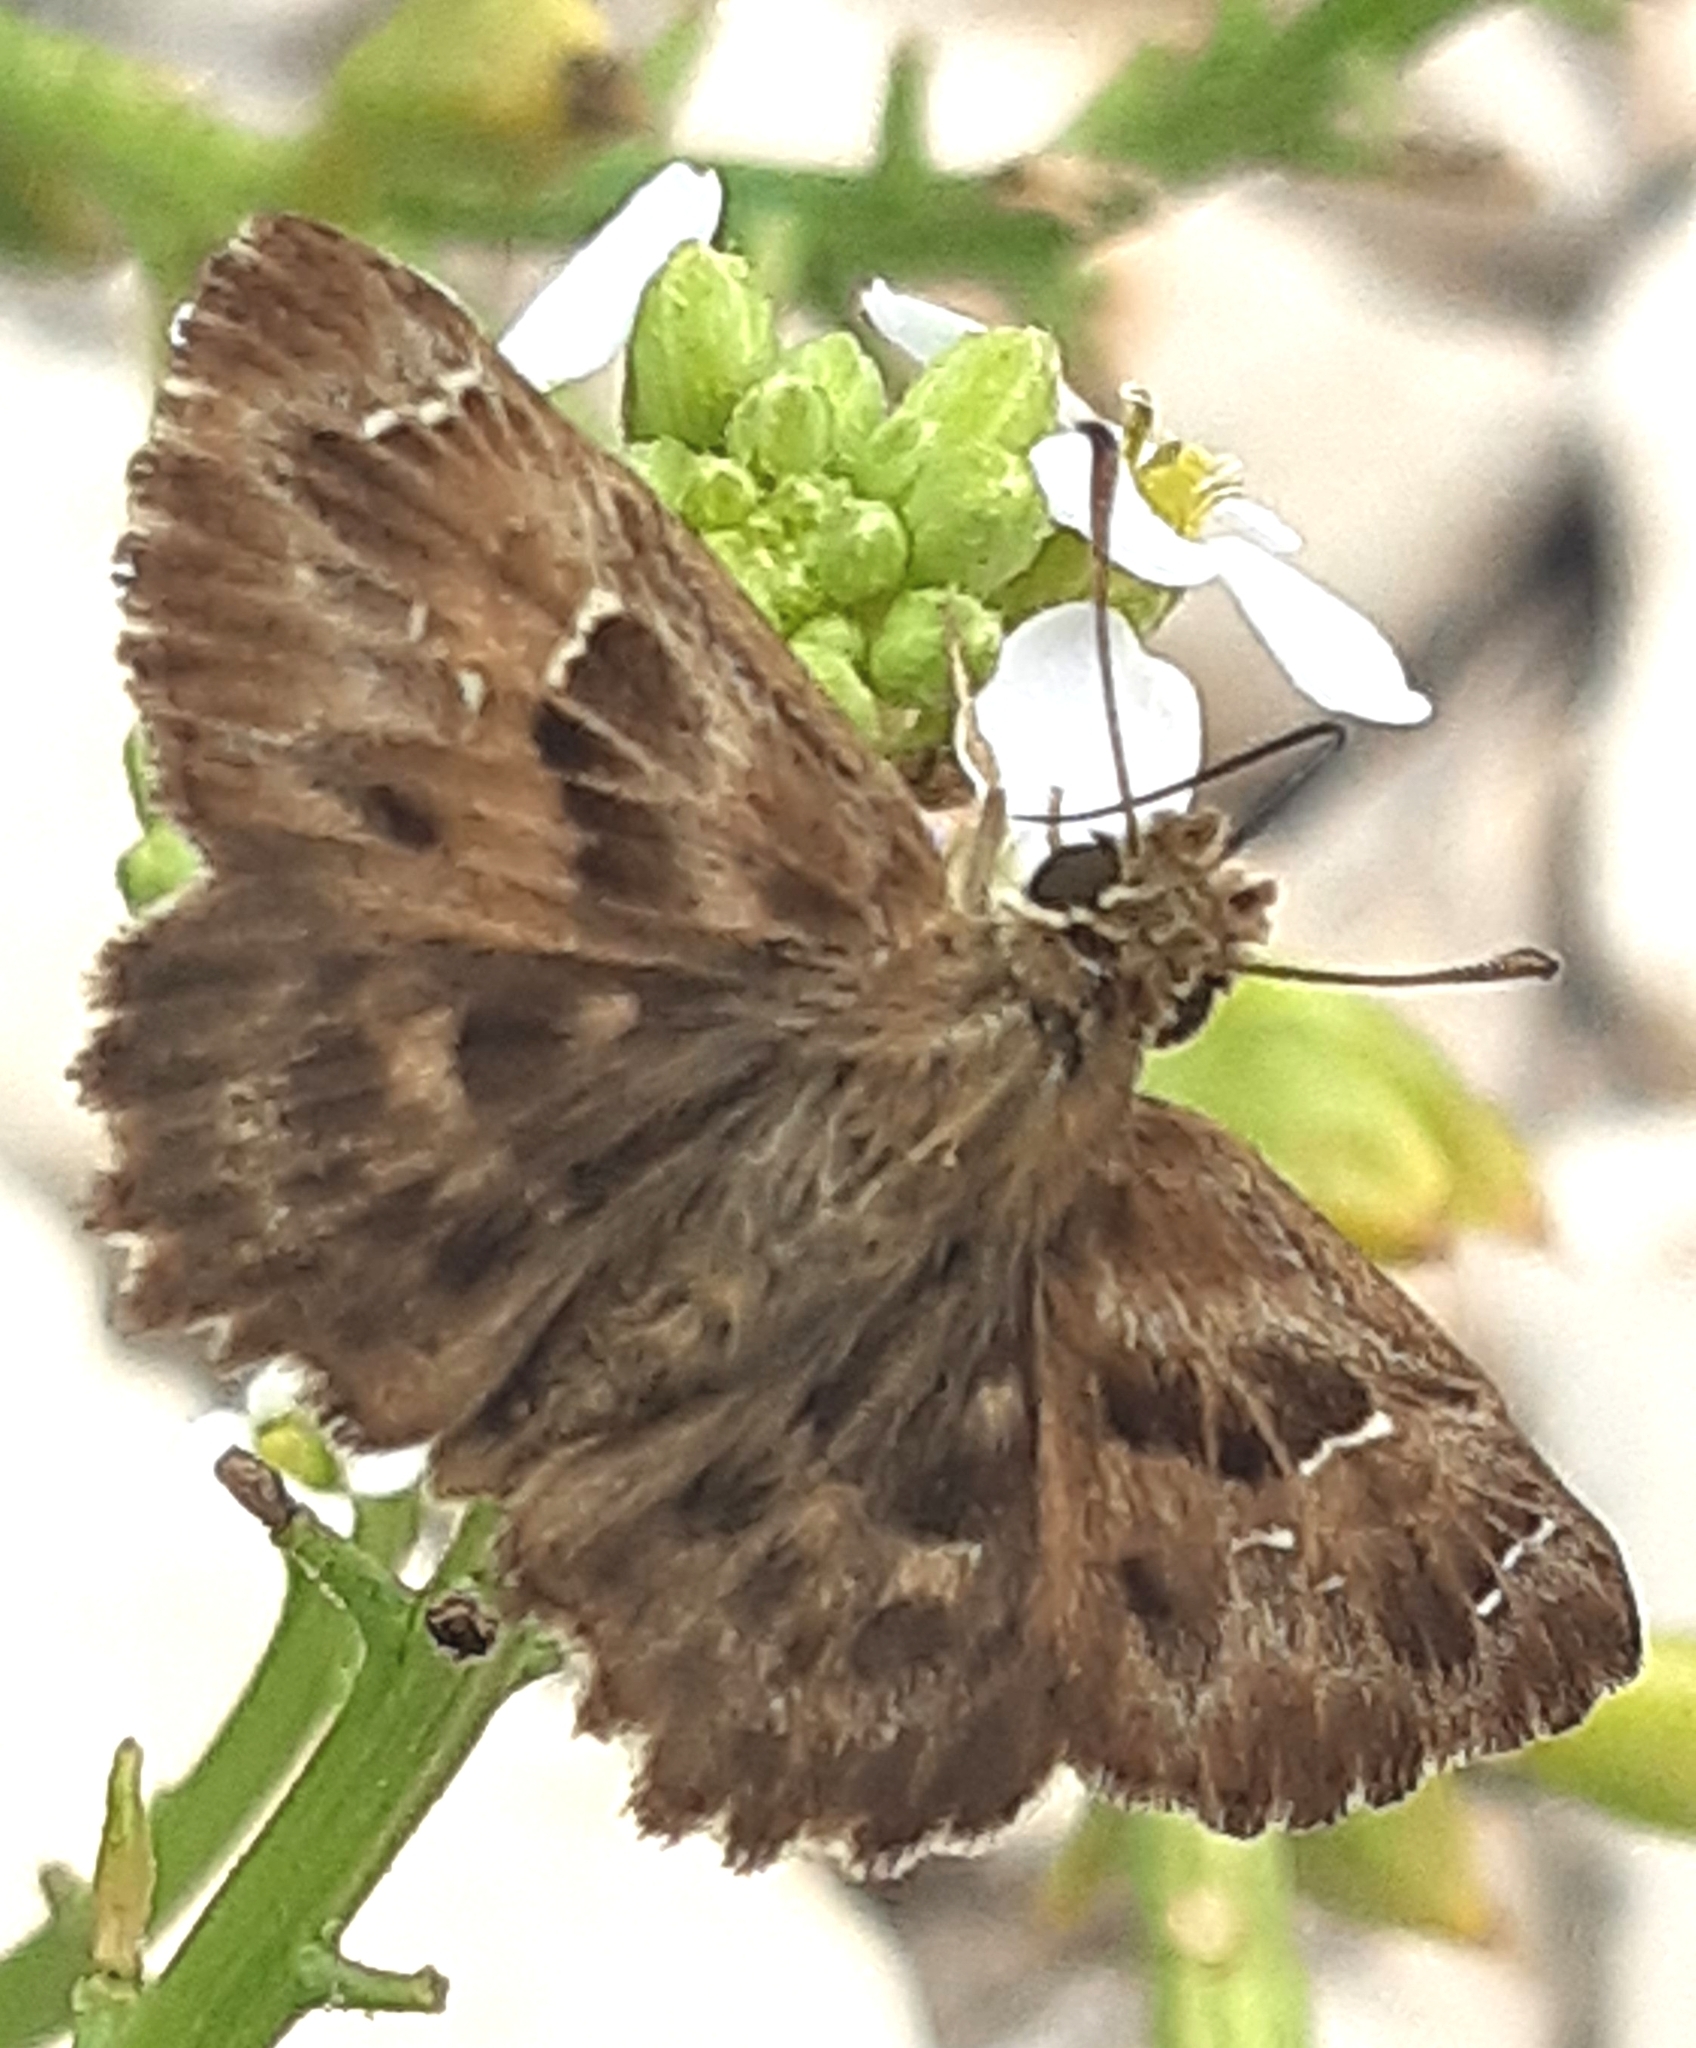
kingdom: Animalia
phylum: Arthropoda
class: Insecta
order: Lepidoptera
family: Hesperiidae
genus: Carcharodus
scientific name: Carcharodus alceae
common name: Mallow skipper
